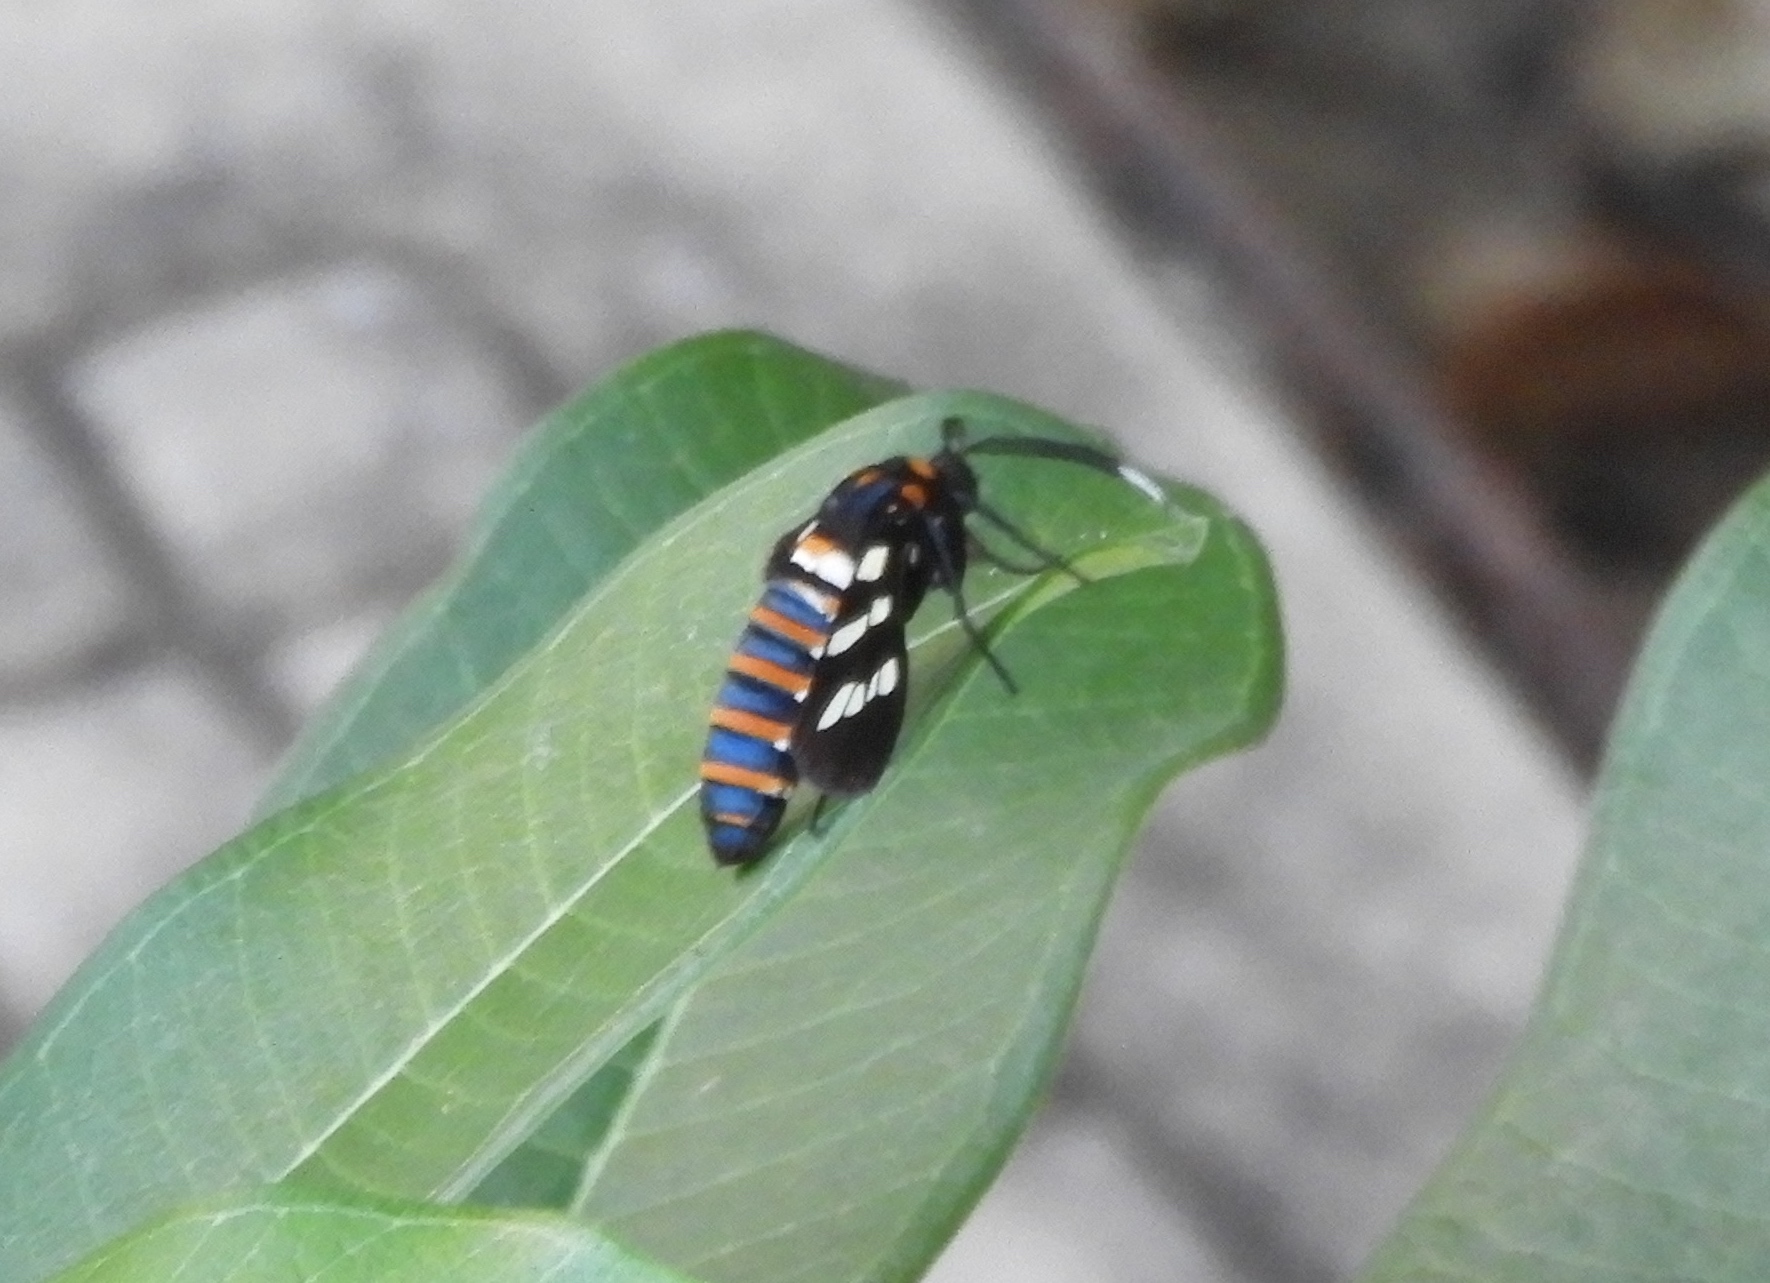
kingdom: Animalia
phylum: Arthropoda
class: Insecta
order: Lepidoptera
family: Erebidae
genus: Syntomeida
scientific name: Syntomeida melanthus
